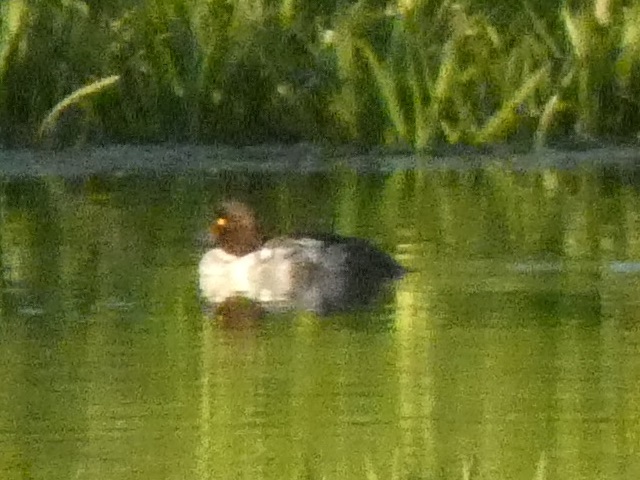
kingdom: Animalia
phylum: Chordata
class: Aves
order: Anseriformes
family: Anatidae
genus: Bucephala
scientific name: Bucephala clangula
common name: Common goldeneye
